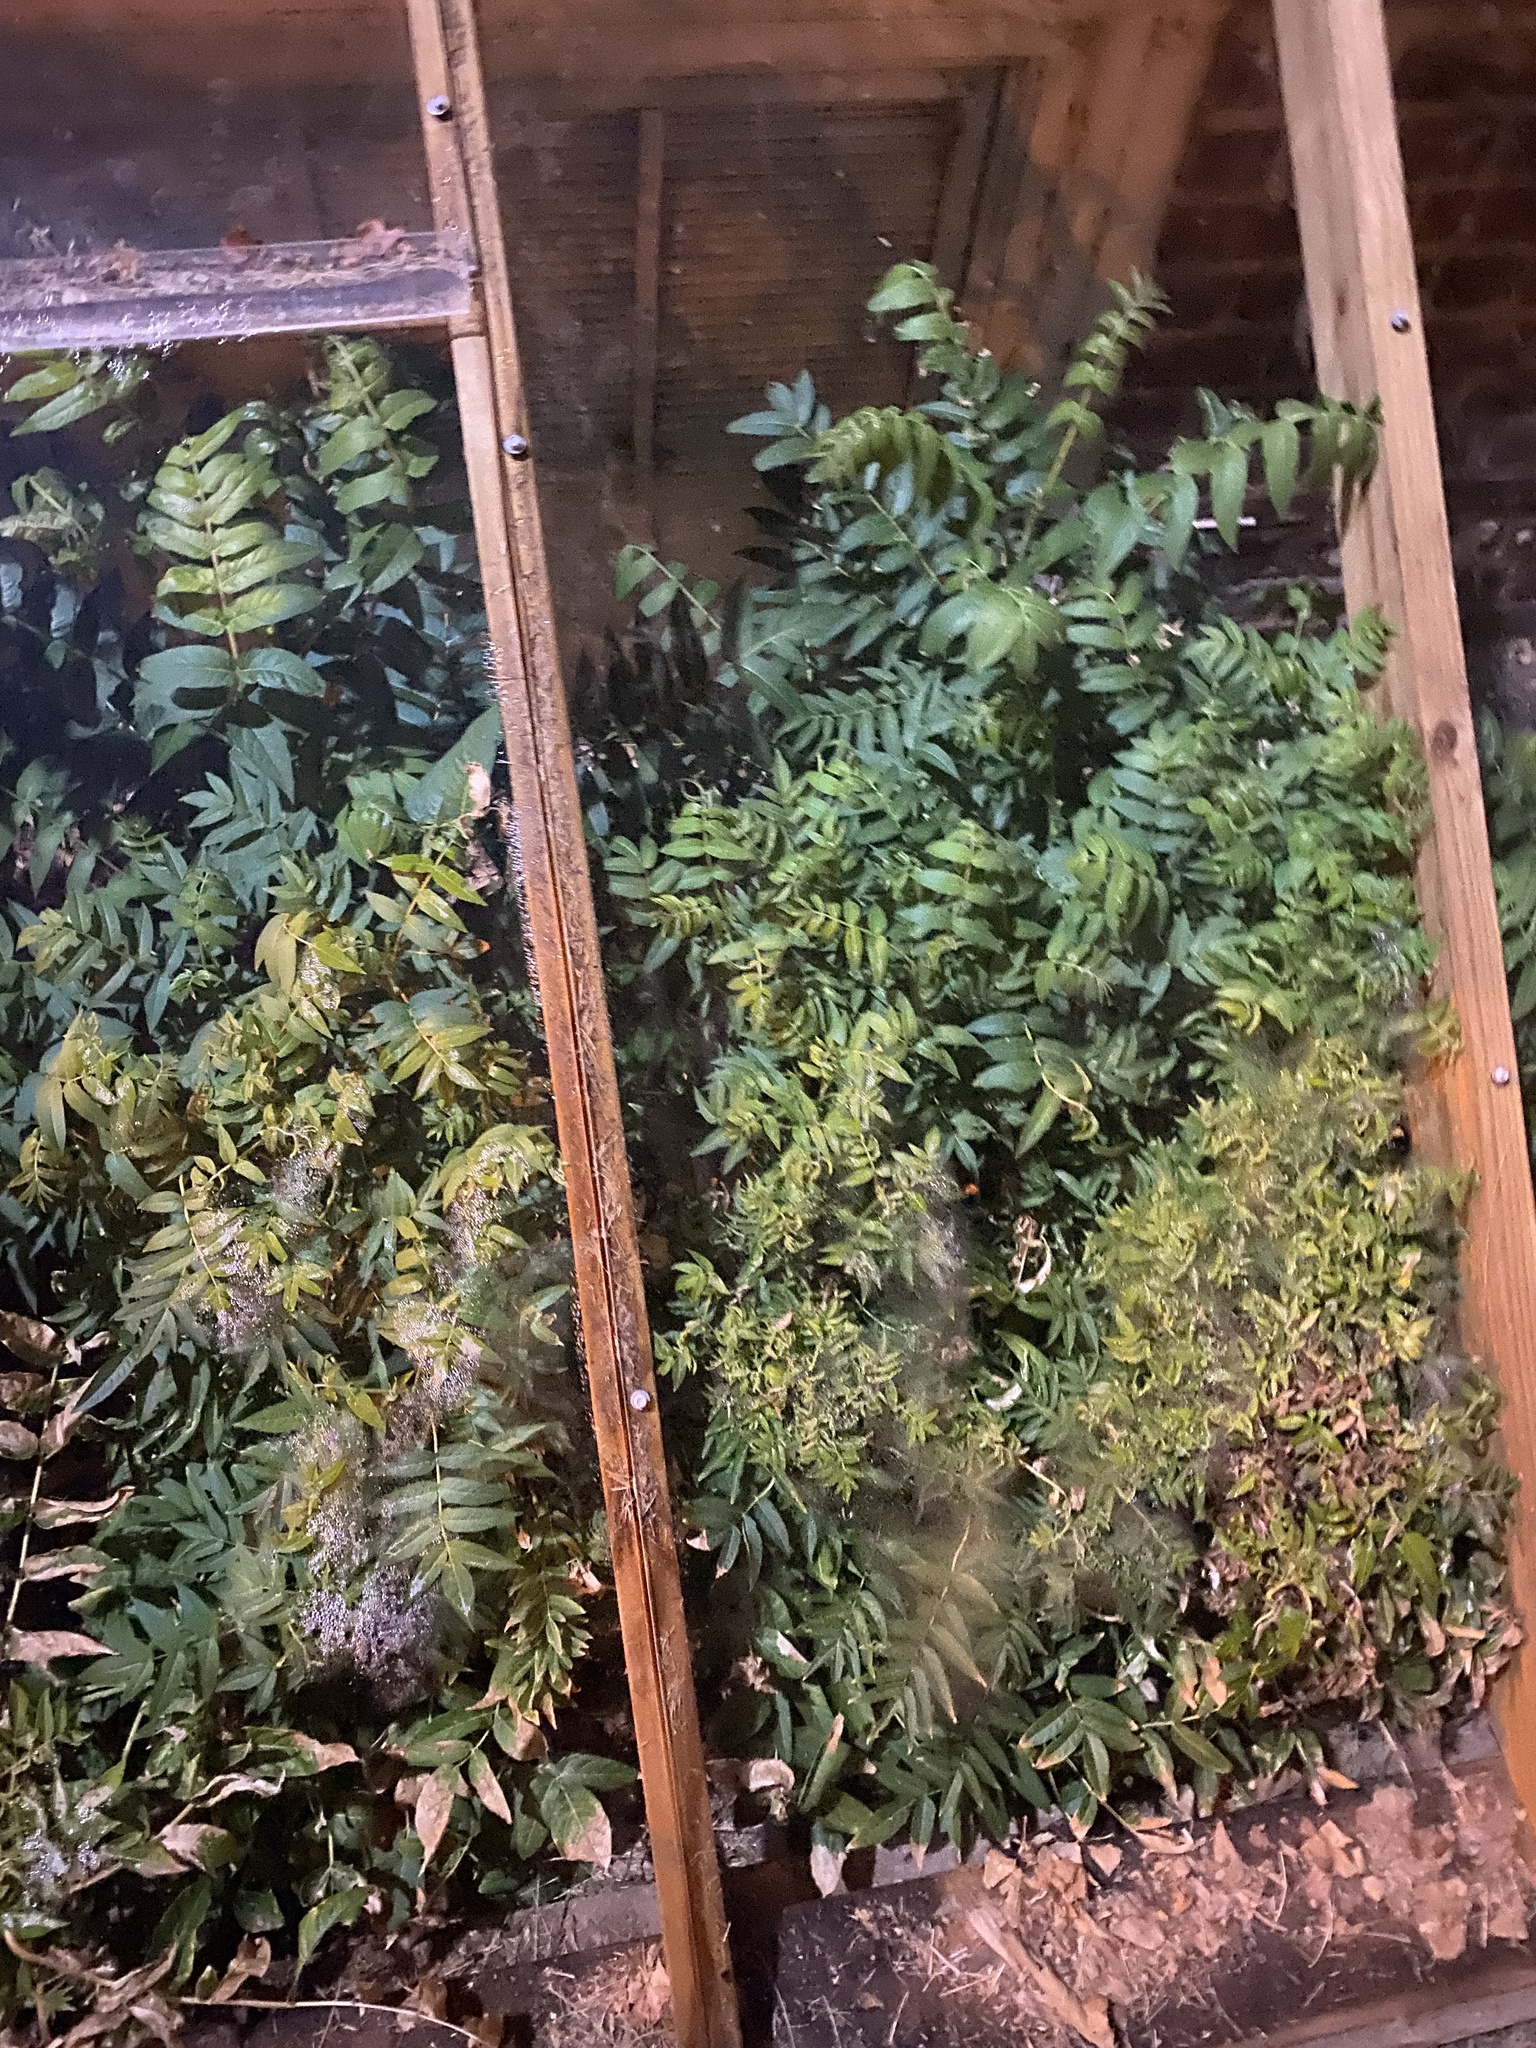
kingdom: Plantae
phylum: Tracheophyta
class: Magnoliopsida
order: Sapindales
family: Simaroubaceae
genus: Ailanthus
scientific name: Ailanthus altissima
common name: Tree-of-heaven
